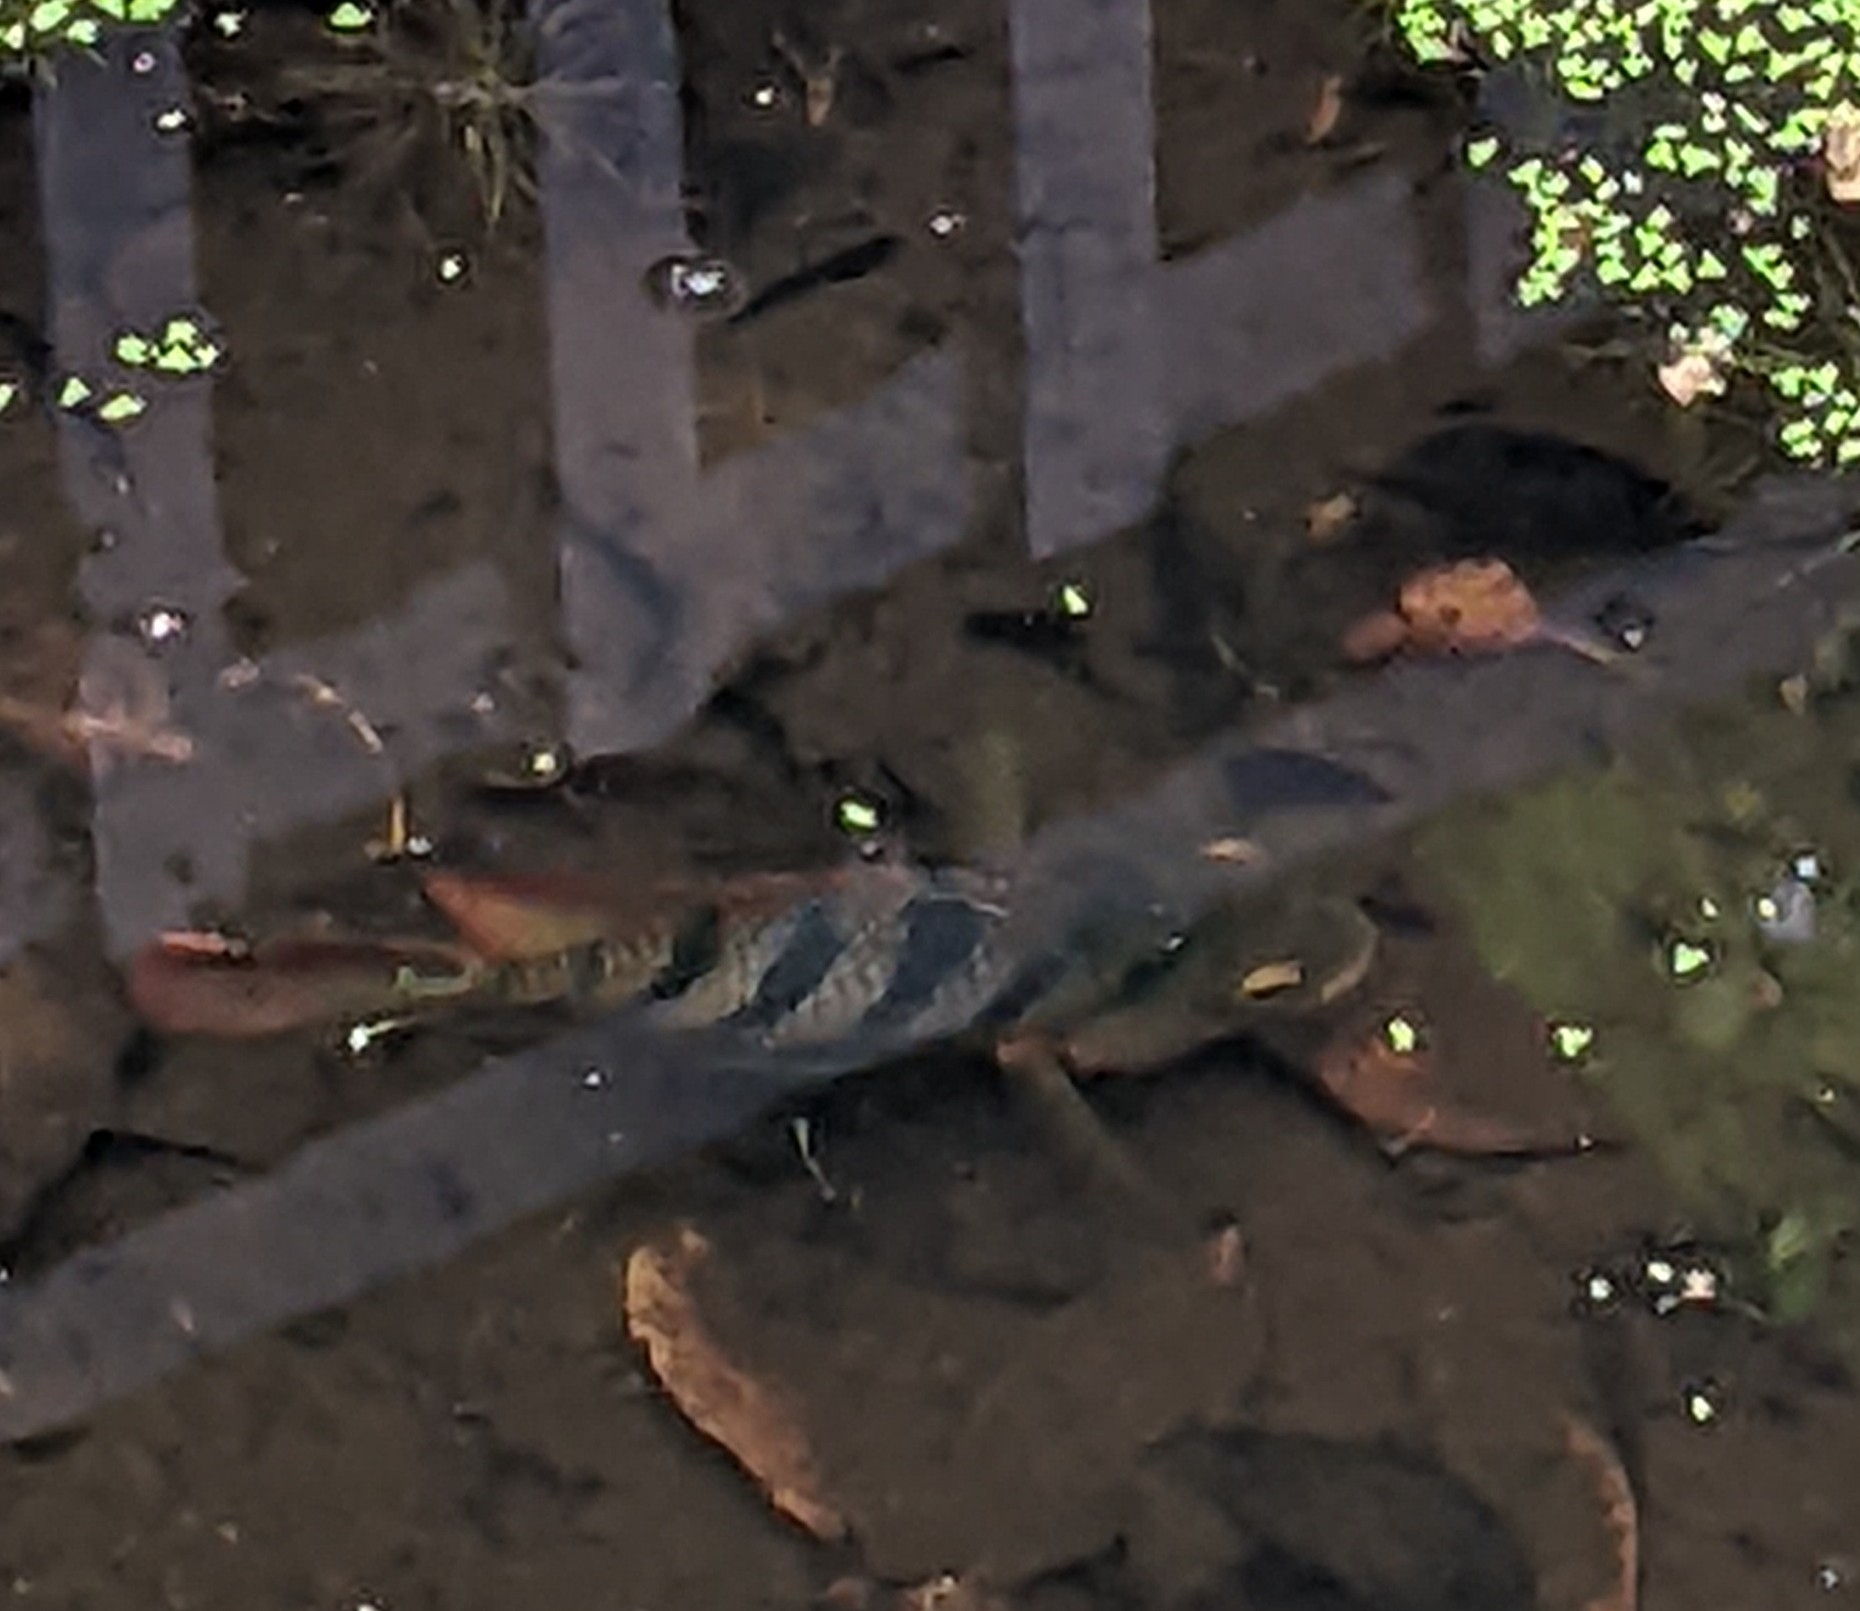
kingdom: Animalia
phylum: Chordata
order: Perciformes
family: Cichlidae
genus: Mayaheros
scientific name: Mayaheros urophthalmus
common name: Mayan cichlid
